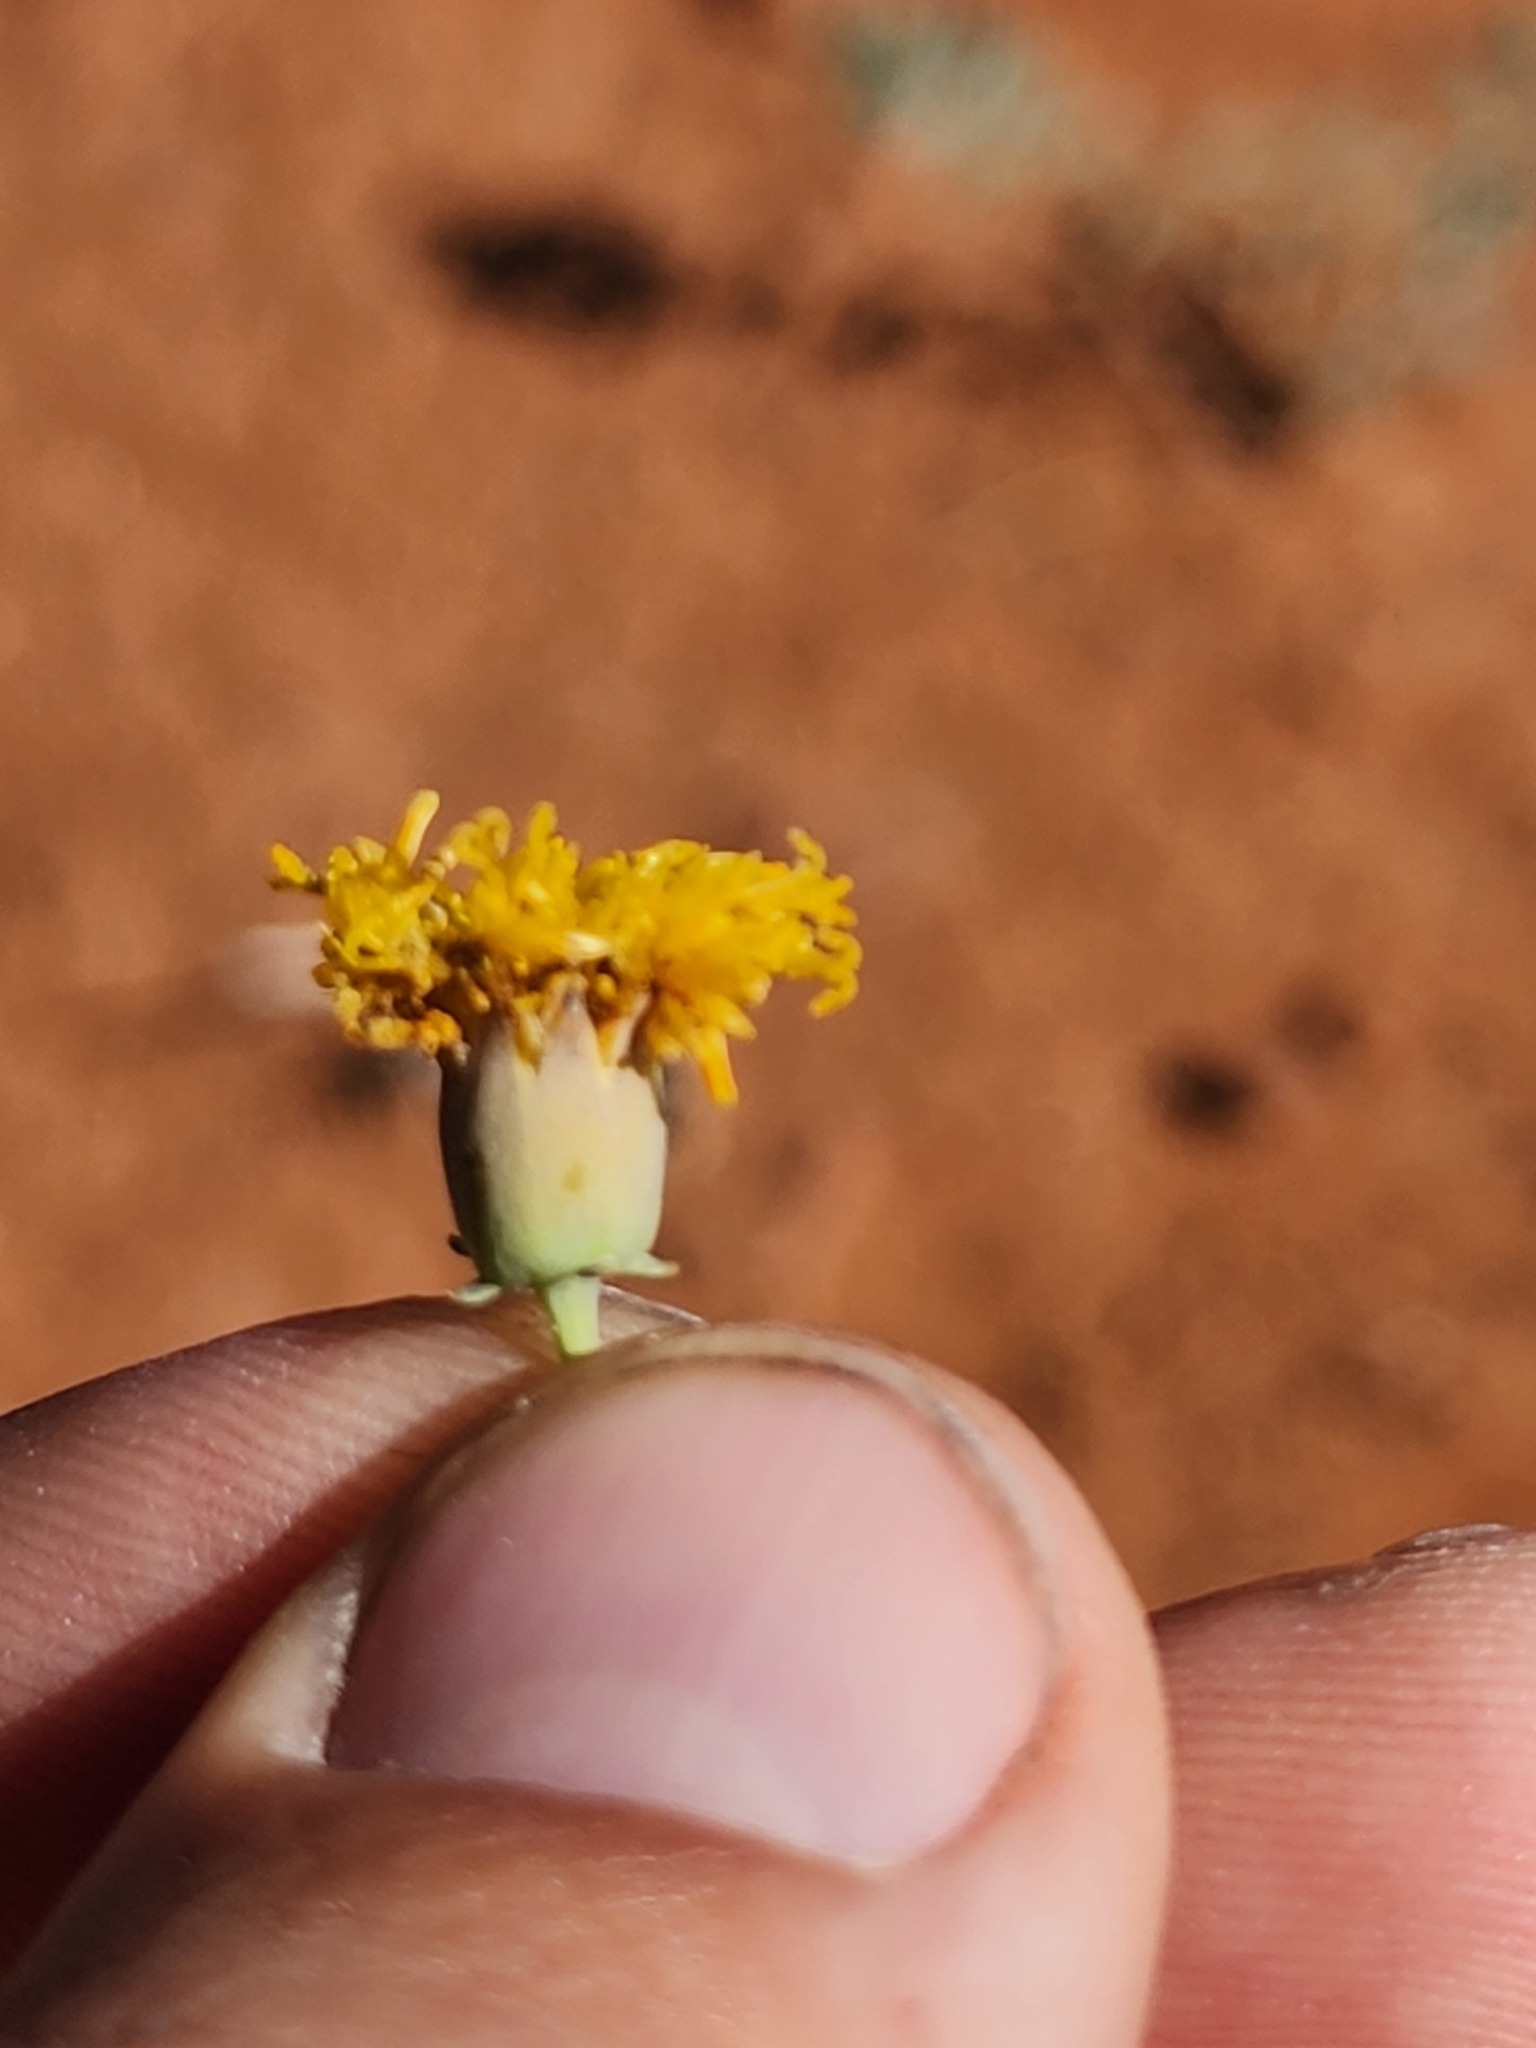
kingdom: Plantae
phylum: Tracheophyta
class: Magnoliopsida
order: Asterales
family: Asteraceae
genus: Thelesperma
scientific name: Thelesperma megapotamicum
